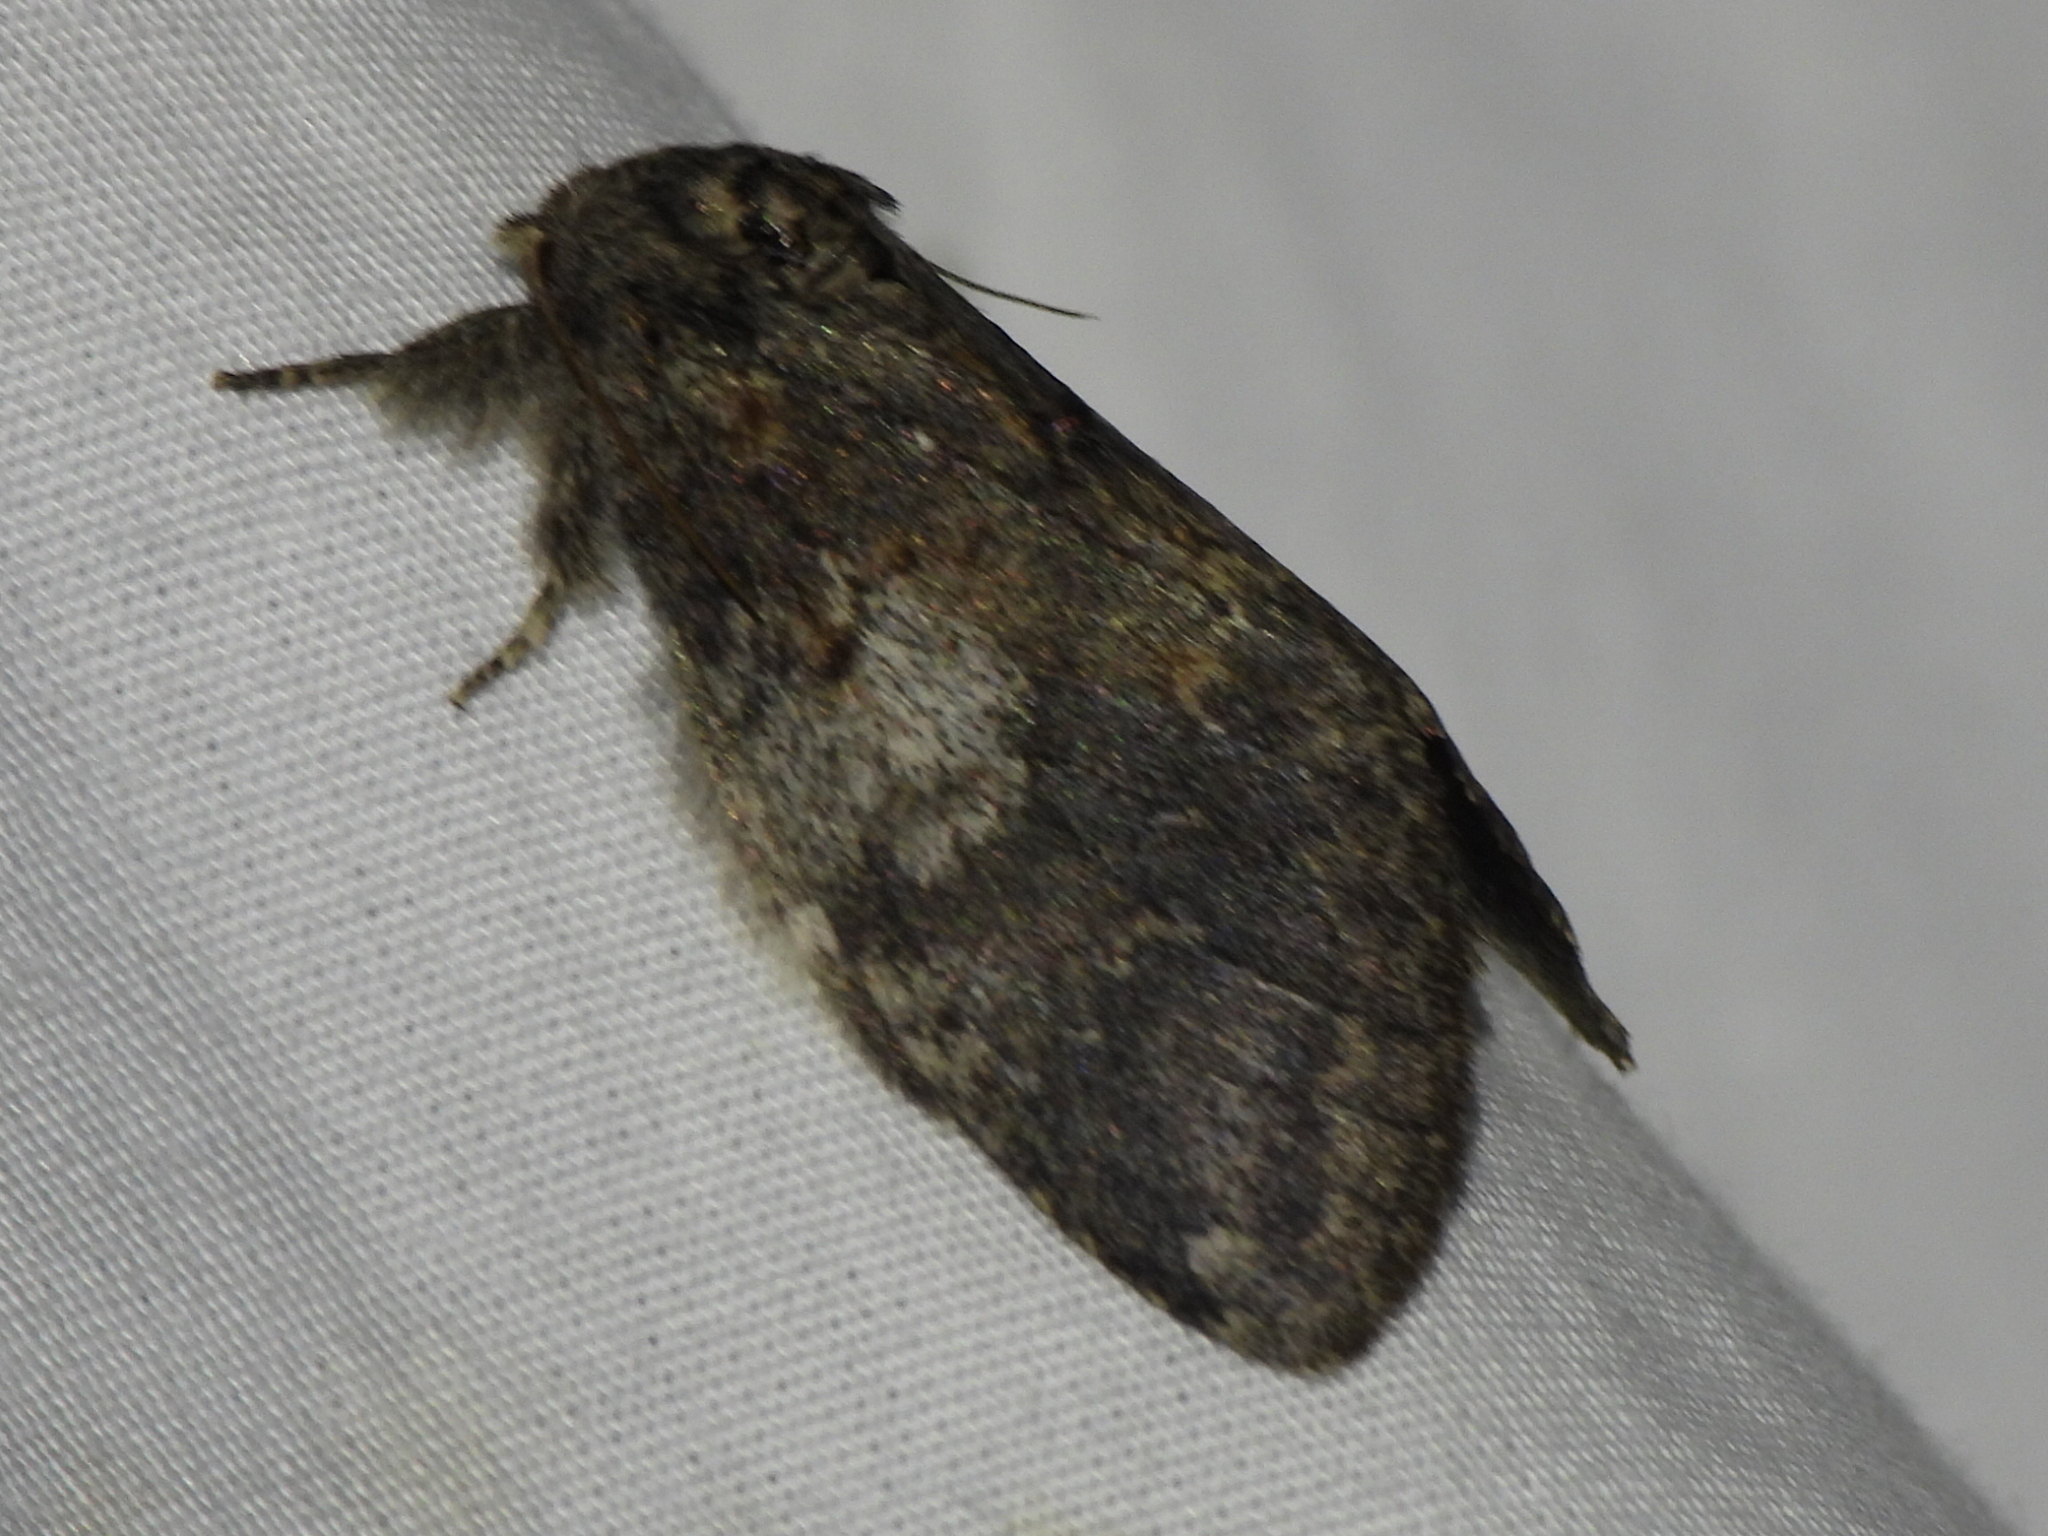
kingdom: Animalia
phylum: Arthropoda
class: Insecta
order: Lepidoptera
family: Notodontidae
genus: Peridea
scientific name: Peridea angulosa
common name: Angulose prominent
